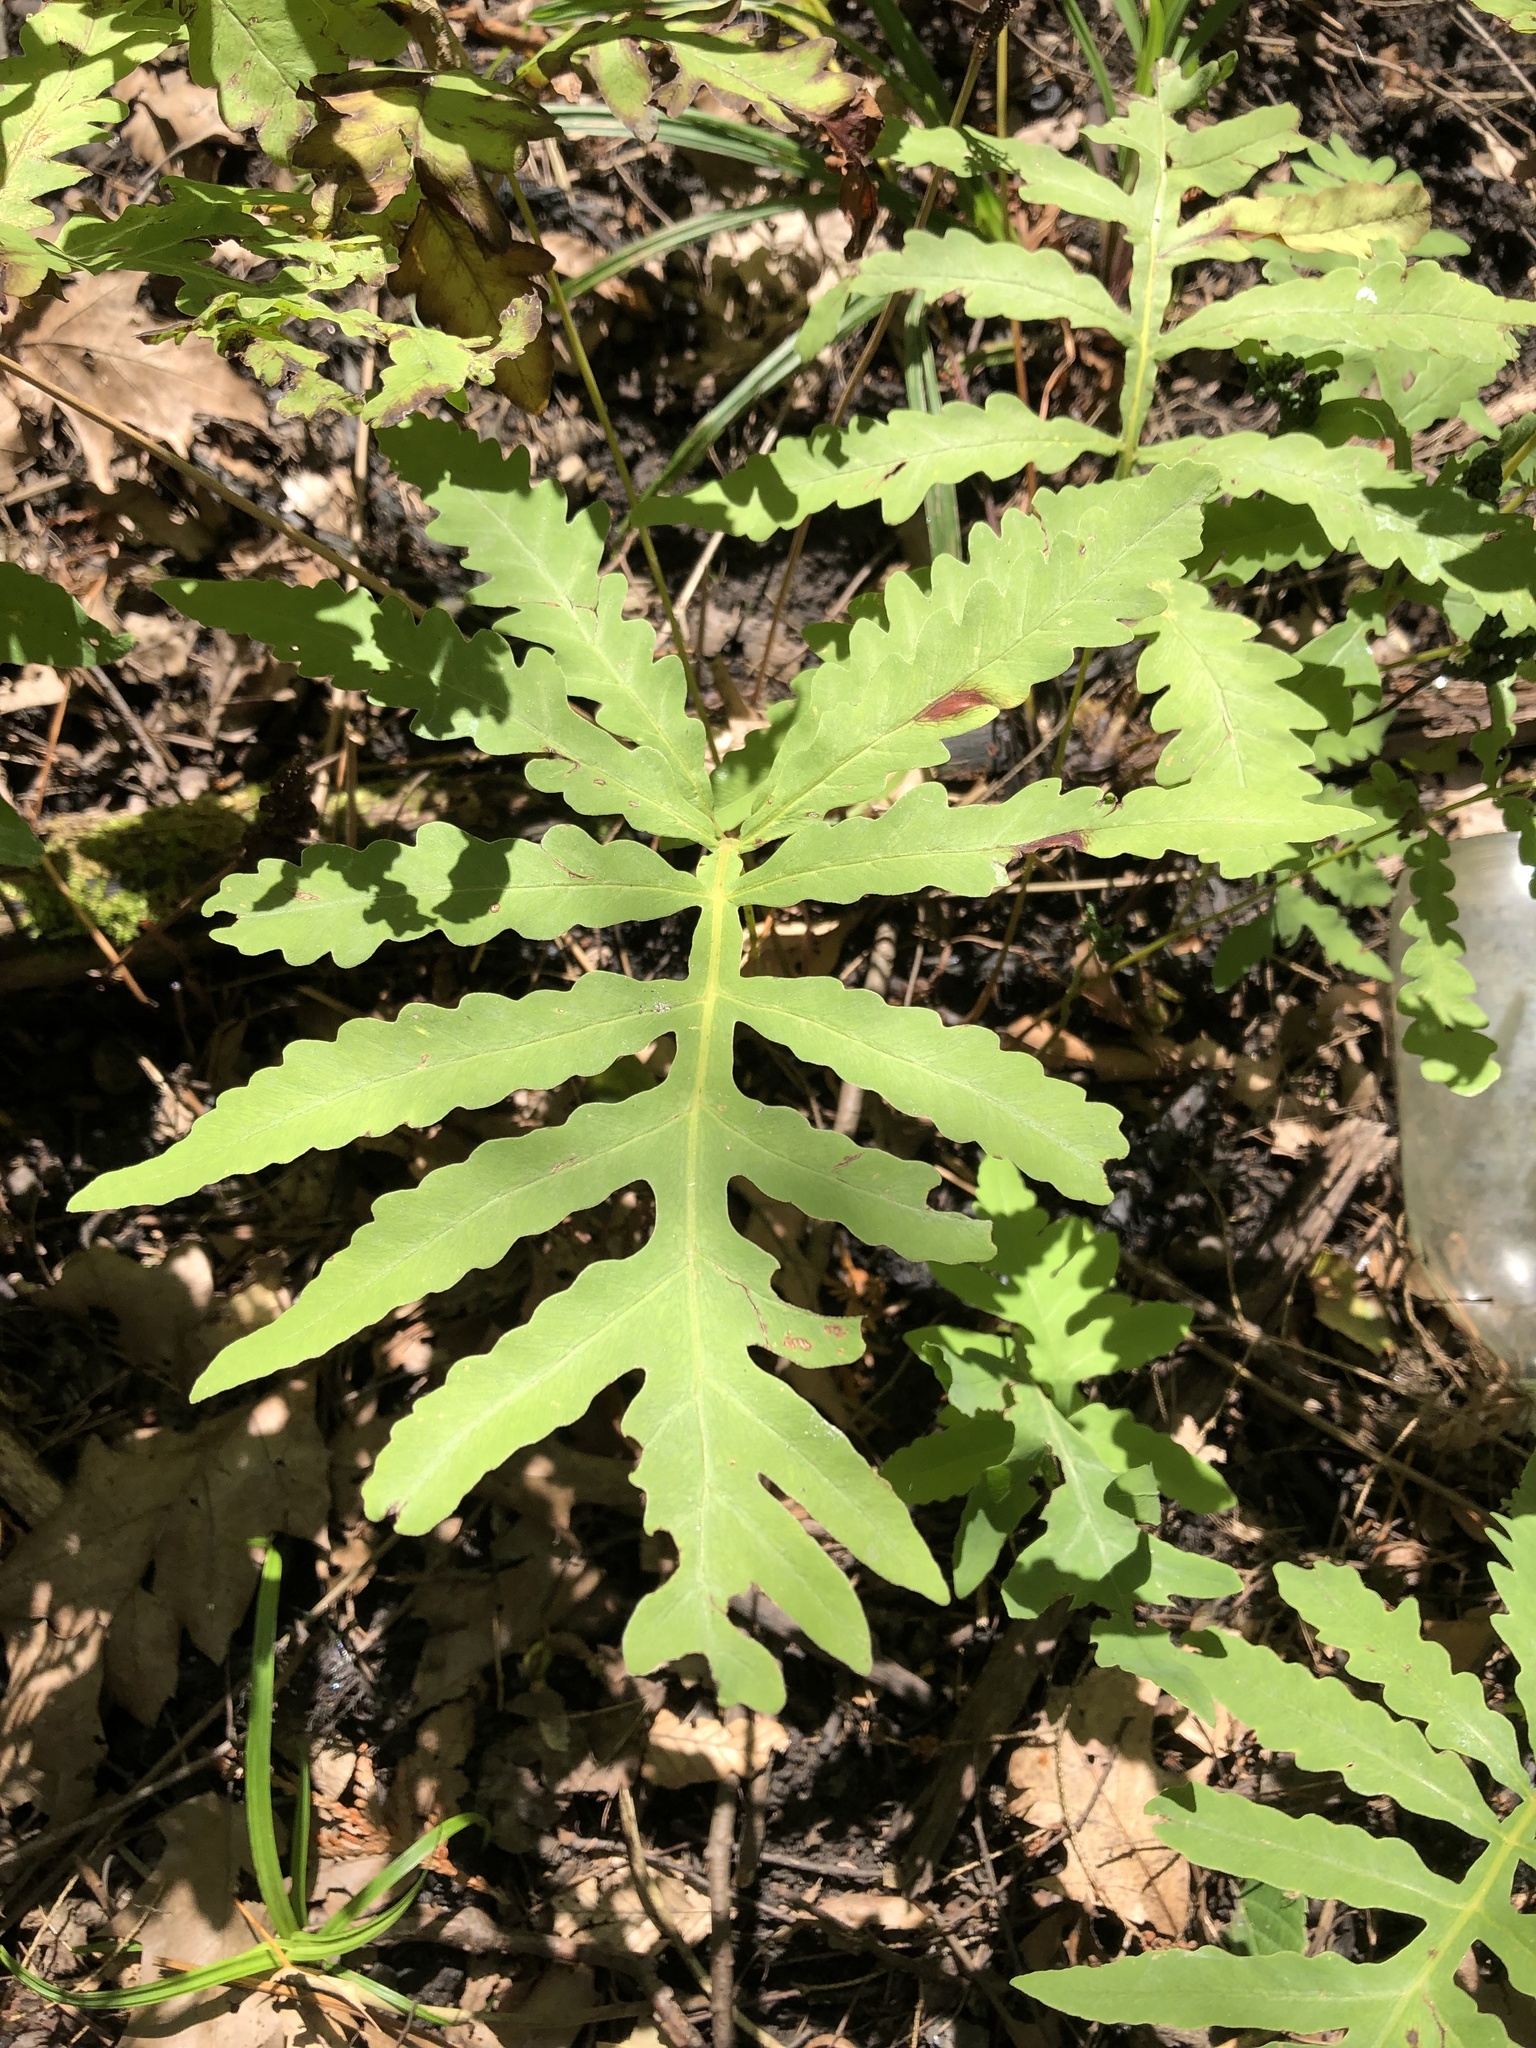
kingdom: Plantae
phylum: Tracheophyta
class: Polypodiopsida
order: Polypodiales
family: Onocleaceae
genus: Onoclea
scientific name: Onoclea sensibilis
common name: Sensitive fern
